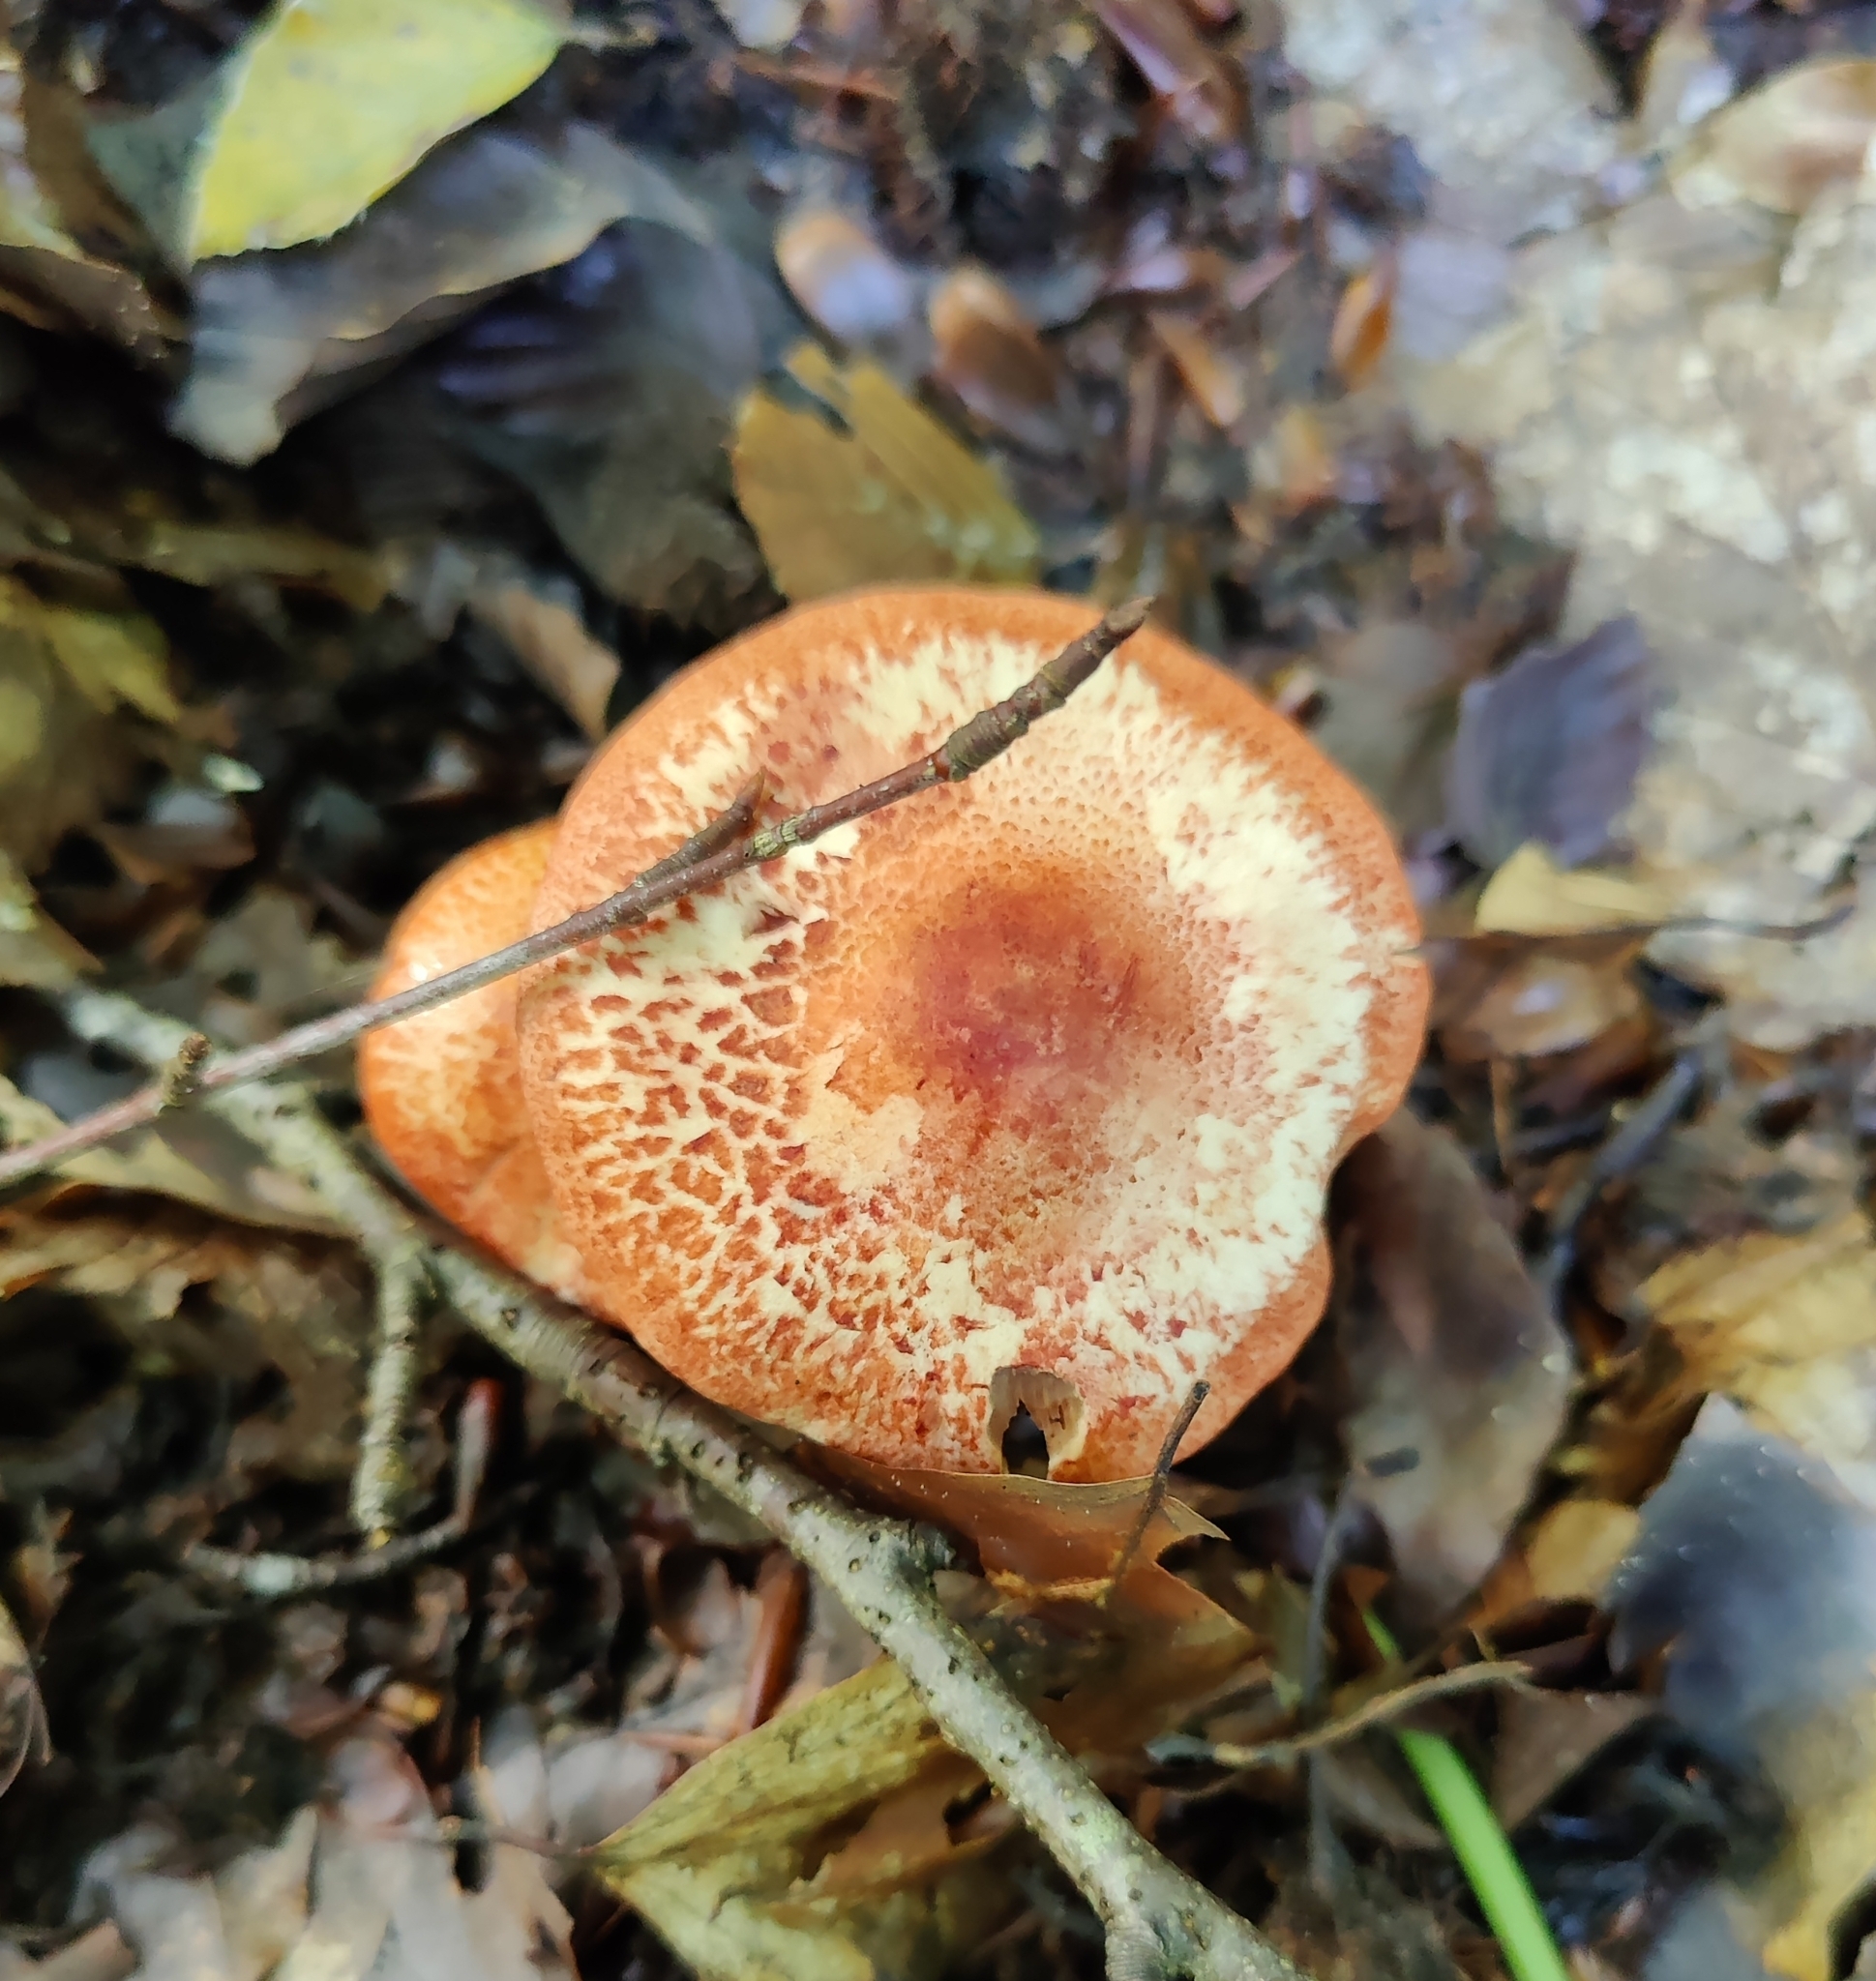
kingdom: Fungi
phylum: Basidiomycota
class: Agaricomycetes
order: Agaricales
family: Cortinariaceae
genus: Cortinarius
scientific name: Cortinarius bolaris
